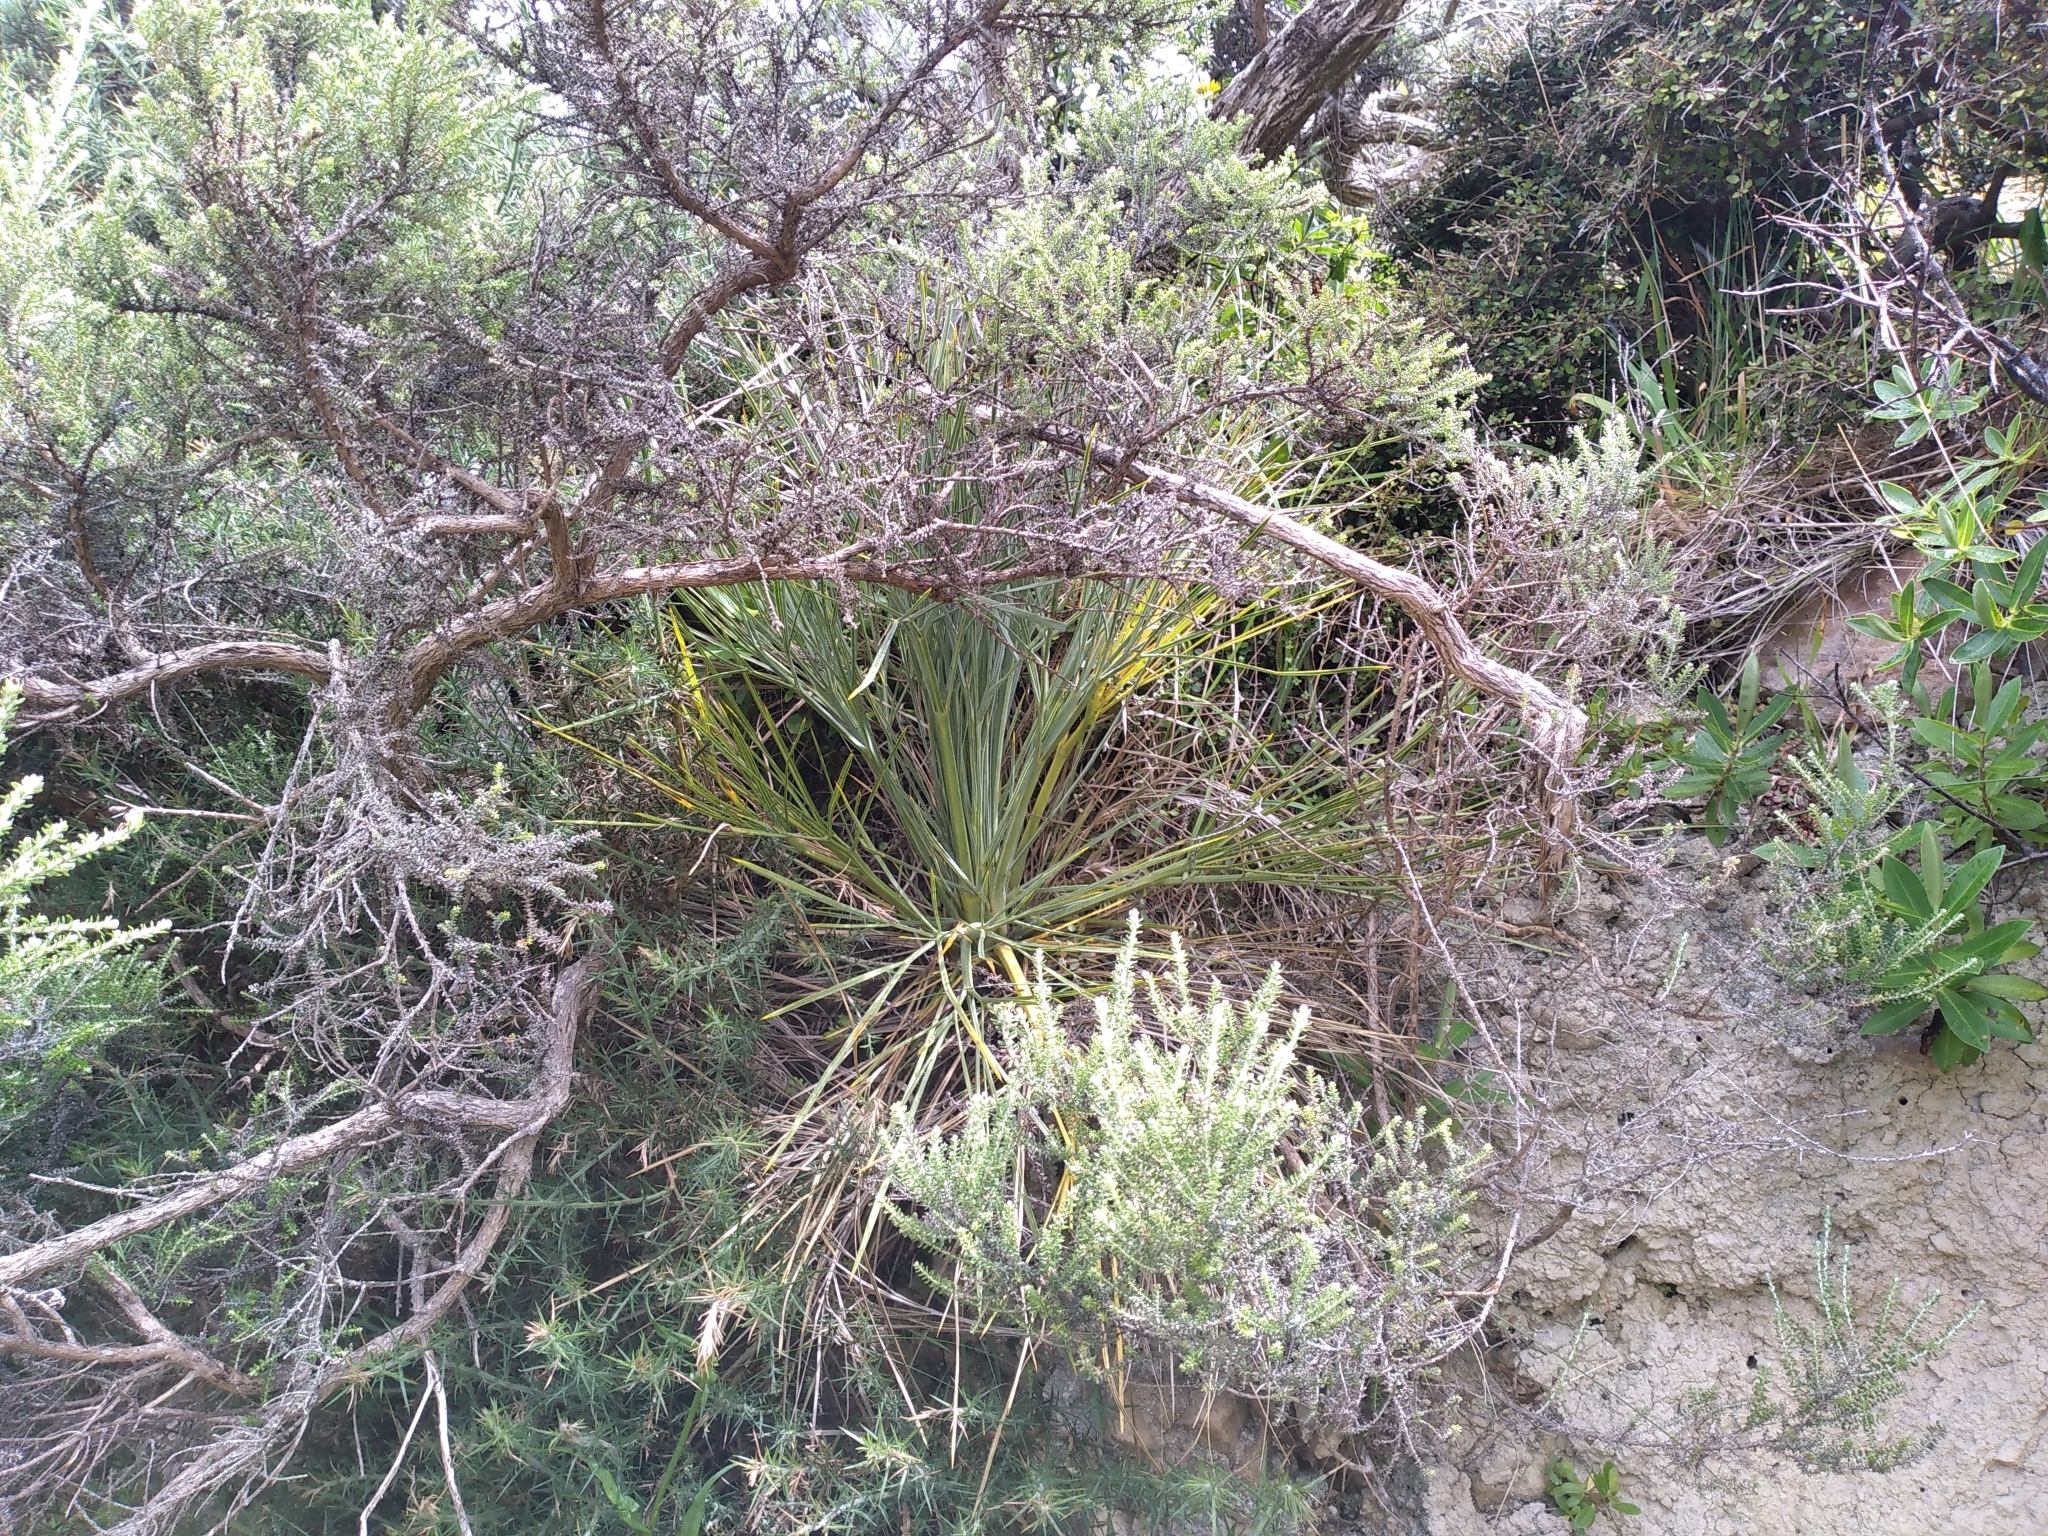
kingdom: Plantae
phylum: Tracheophyta
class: Magnoliopsida
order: Apiales
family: Apiaceae
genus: Aciphylla
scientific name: Aciphylla squarrosa
